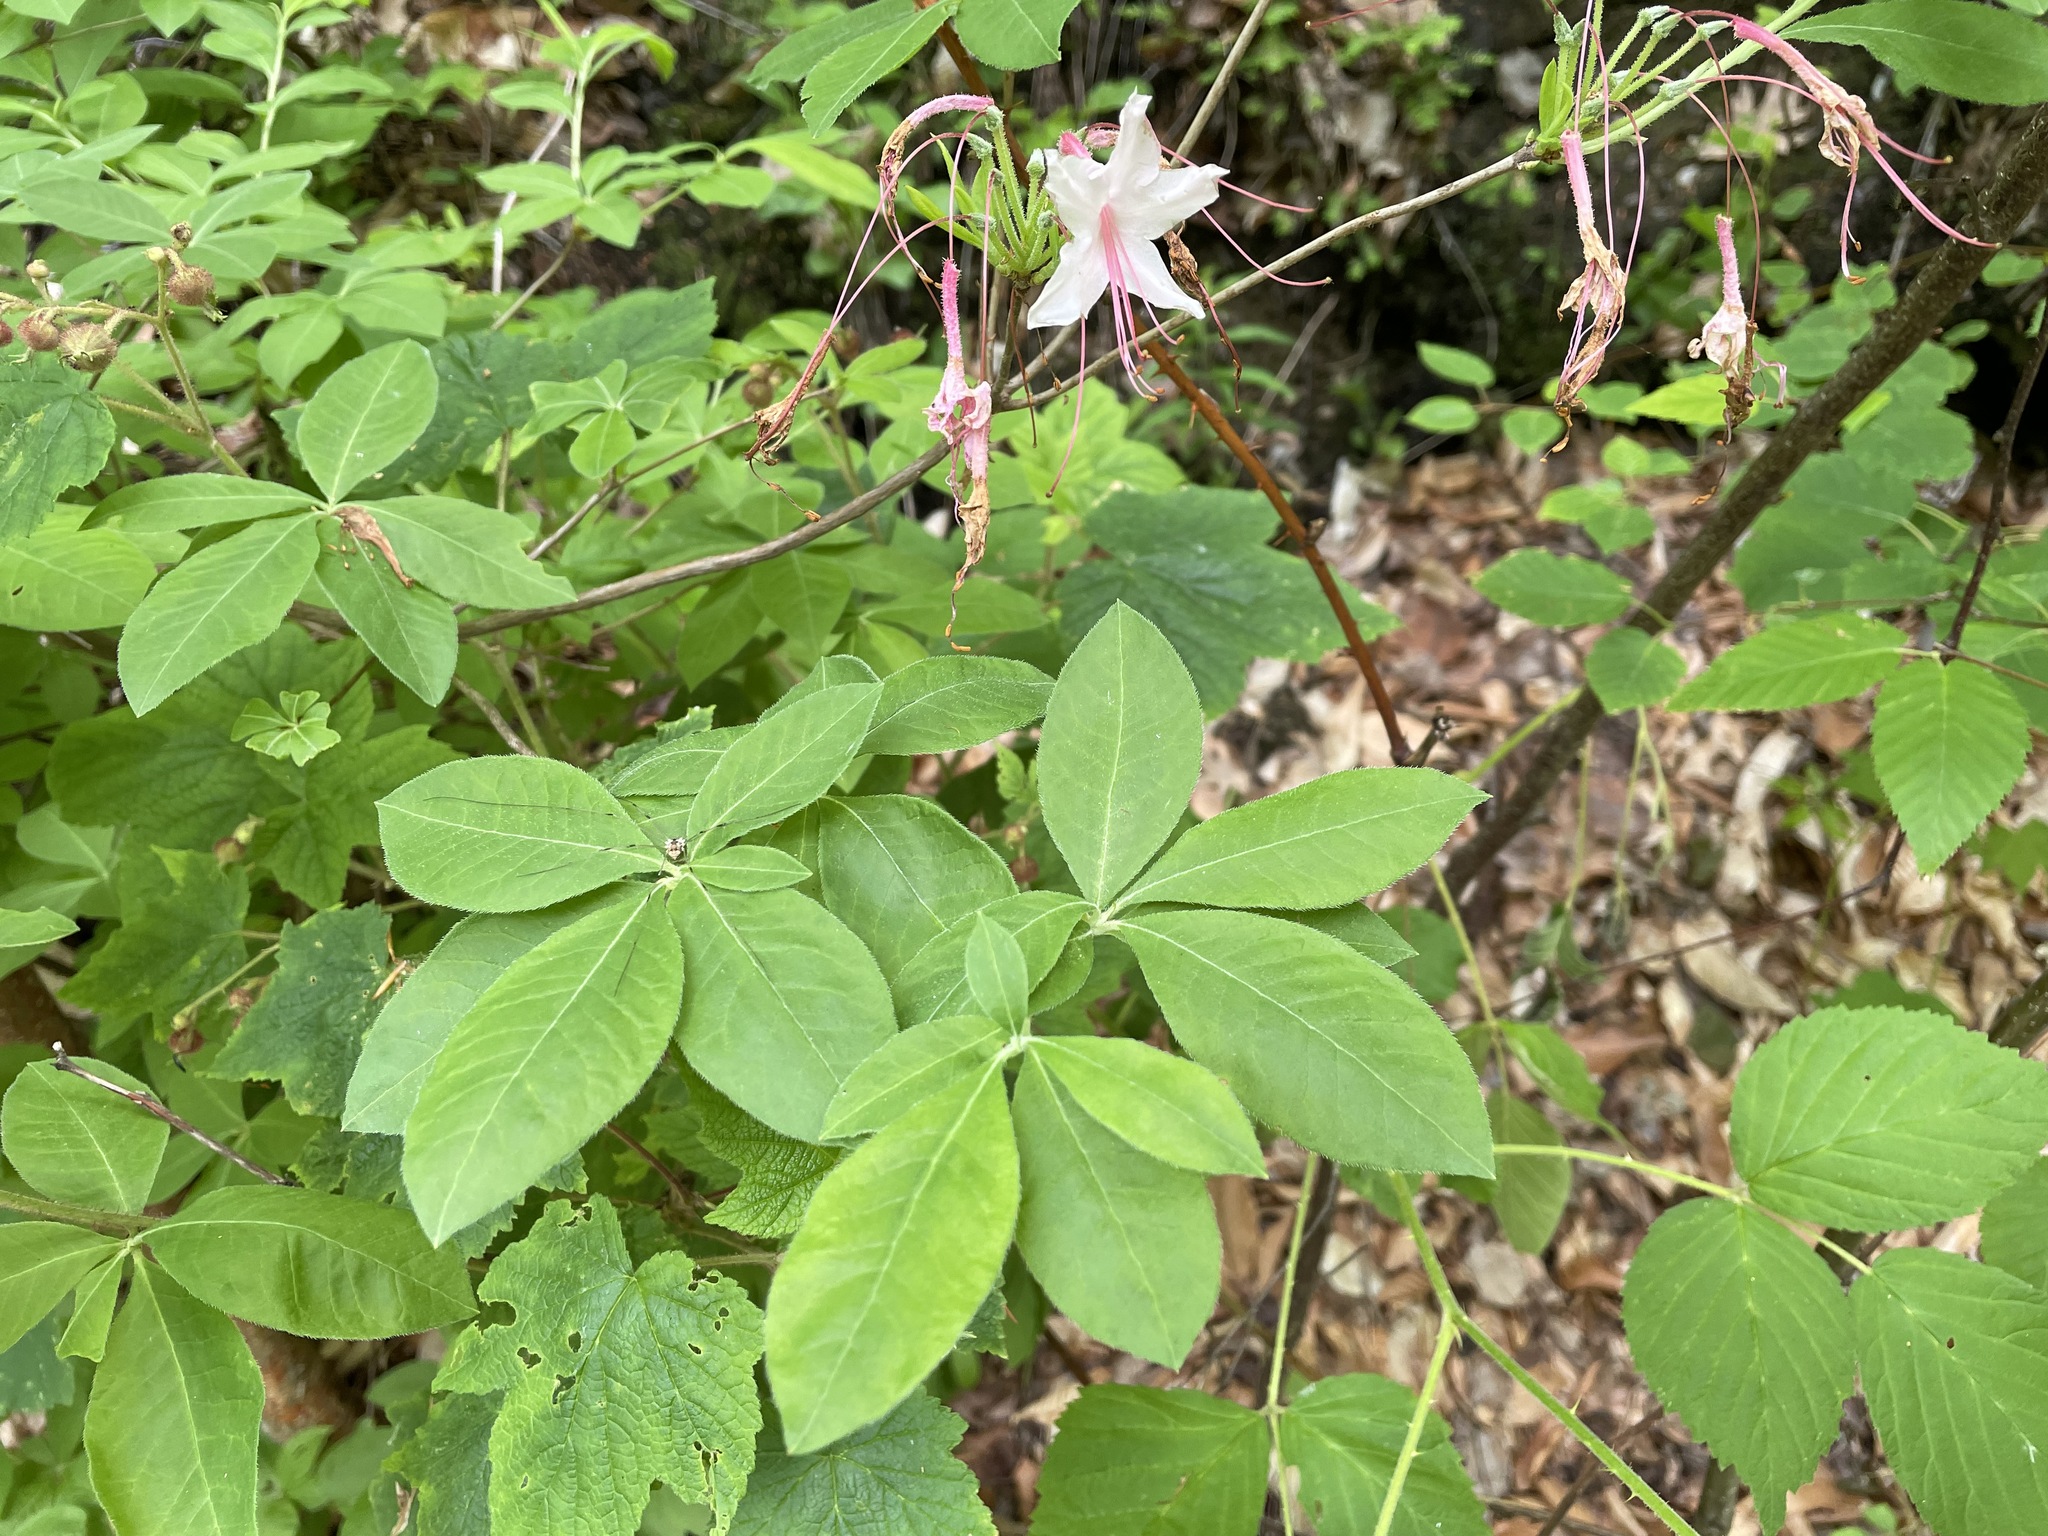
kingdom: Plantae
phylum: Tracheophyta
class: Magnoliopsida
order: Ericales
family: Ericaceae
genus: Rhododendron
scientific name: Rhododendron roseum
